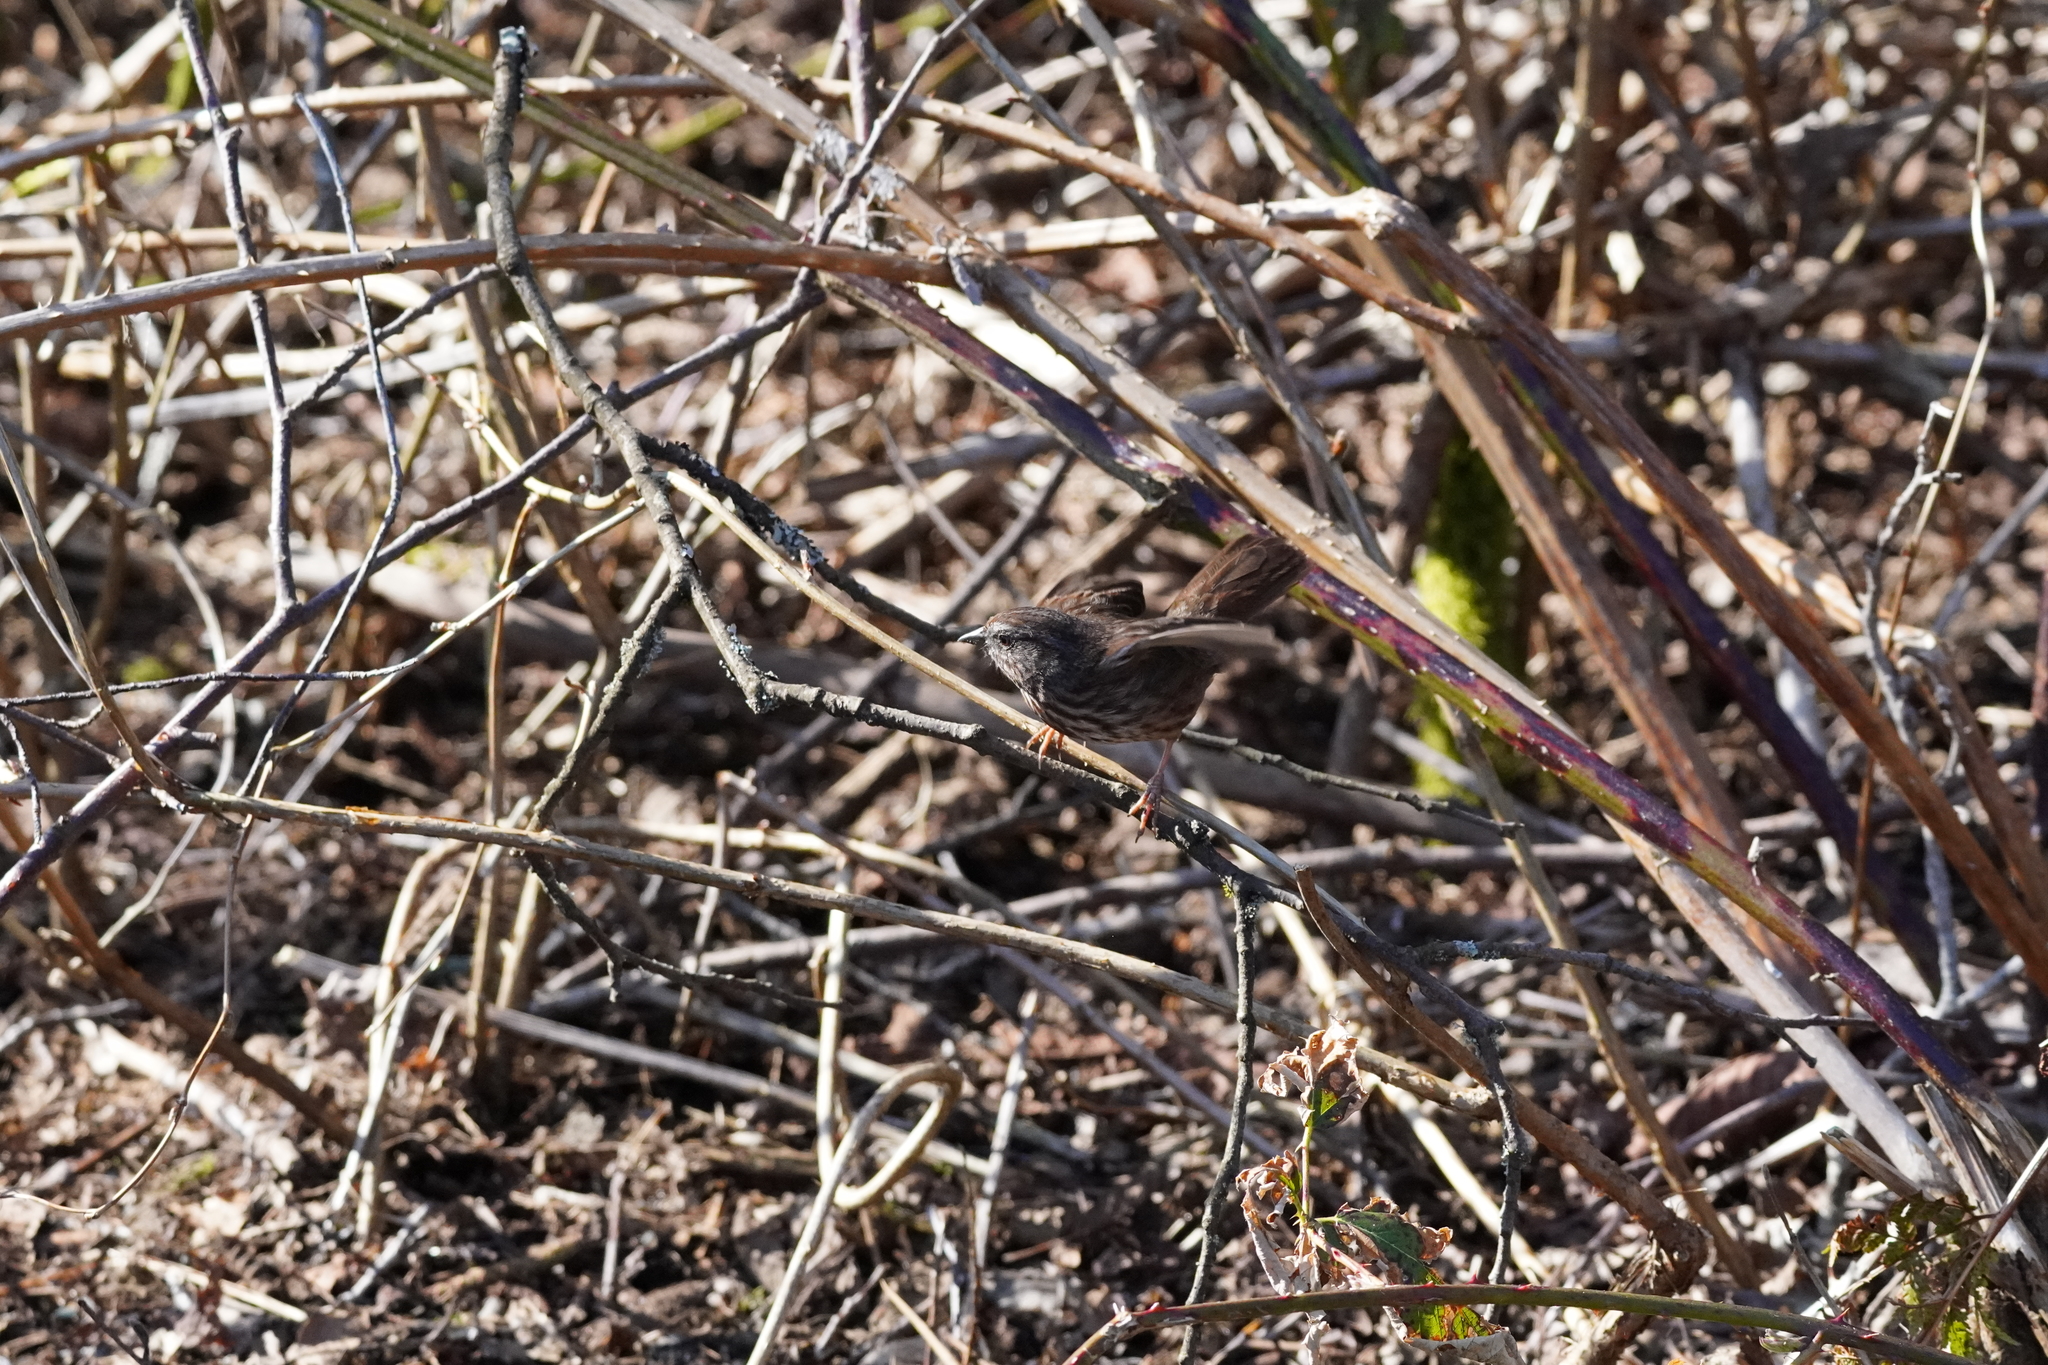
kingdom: Animalia
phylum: Chordata
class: Aves
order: Passeriformes
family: Passerellidae
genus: Melospiza
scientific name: Melospiza melodia
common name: Song sparrow
